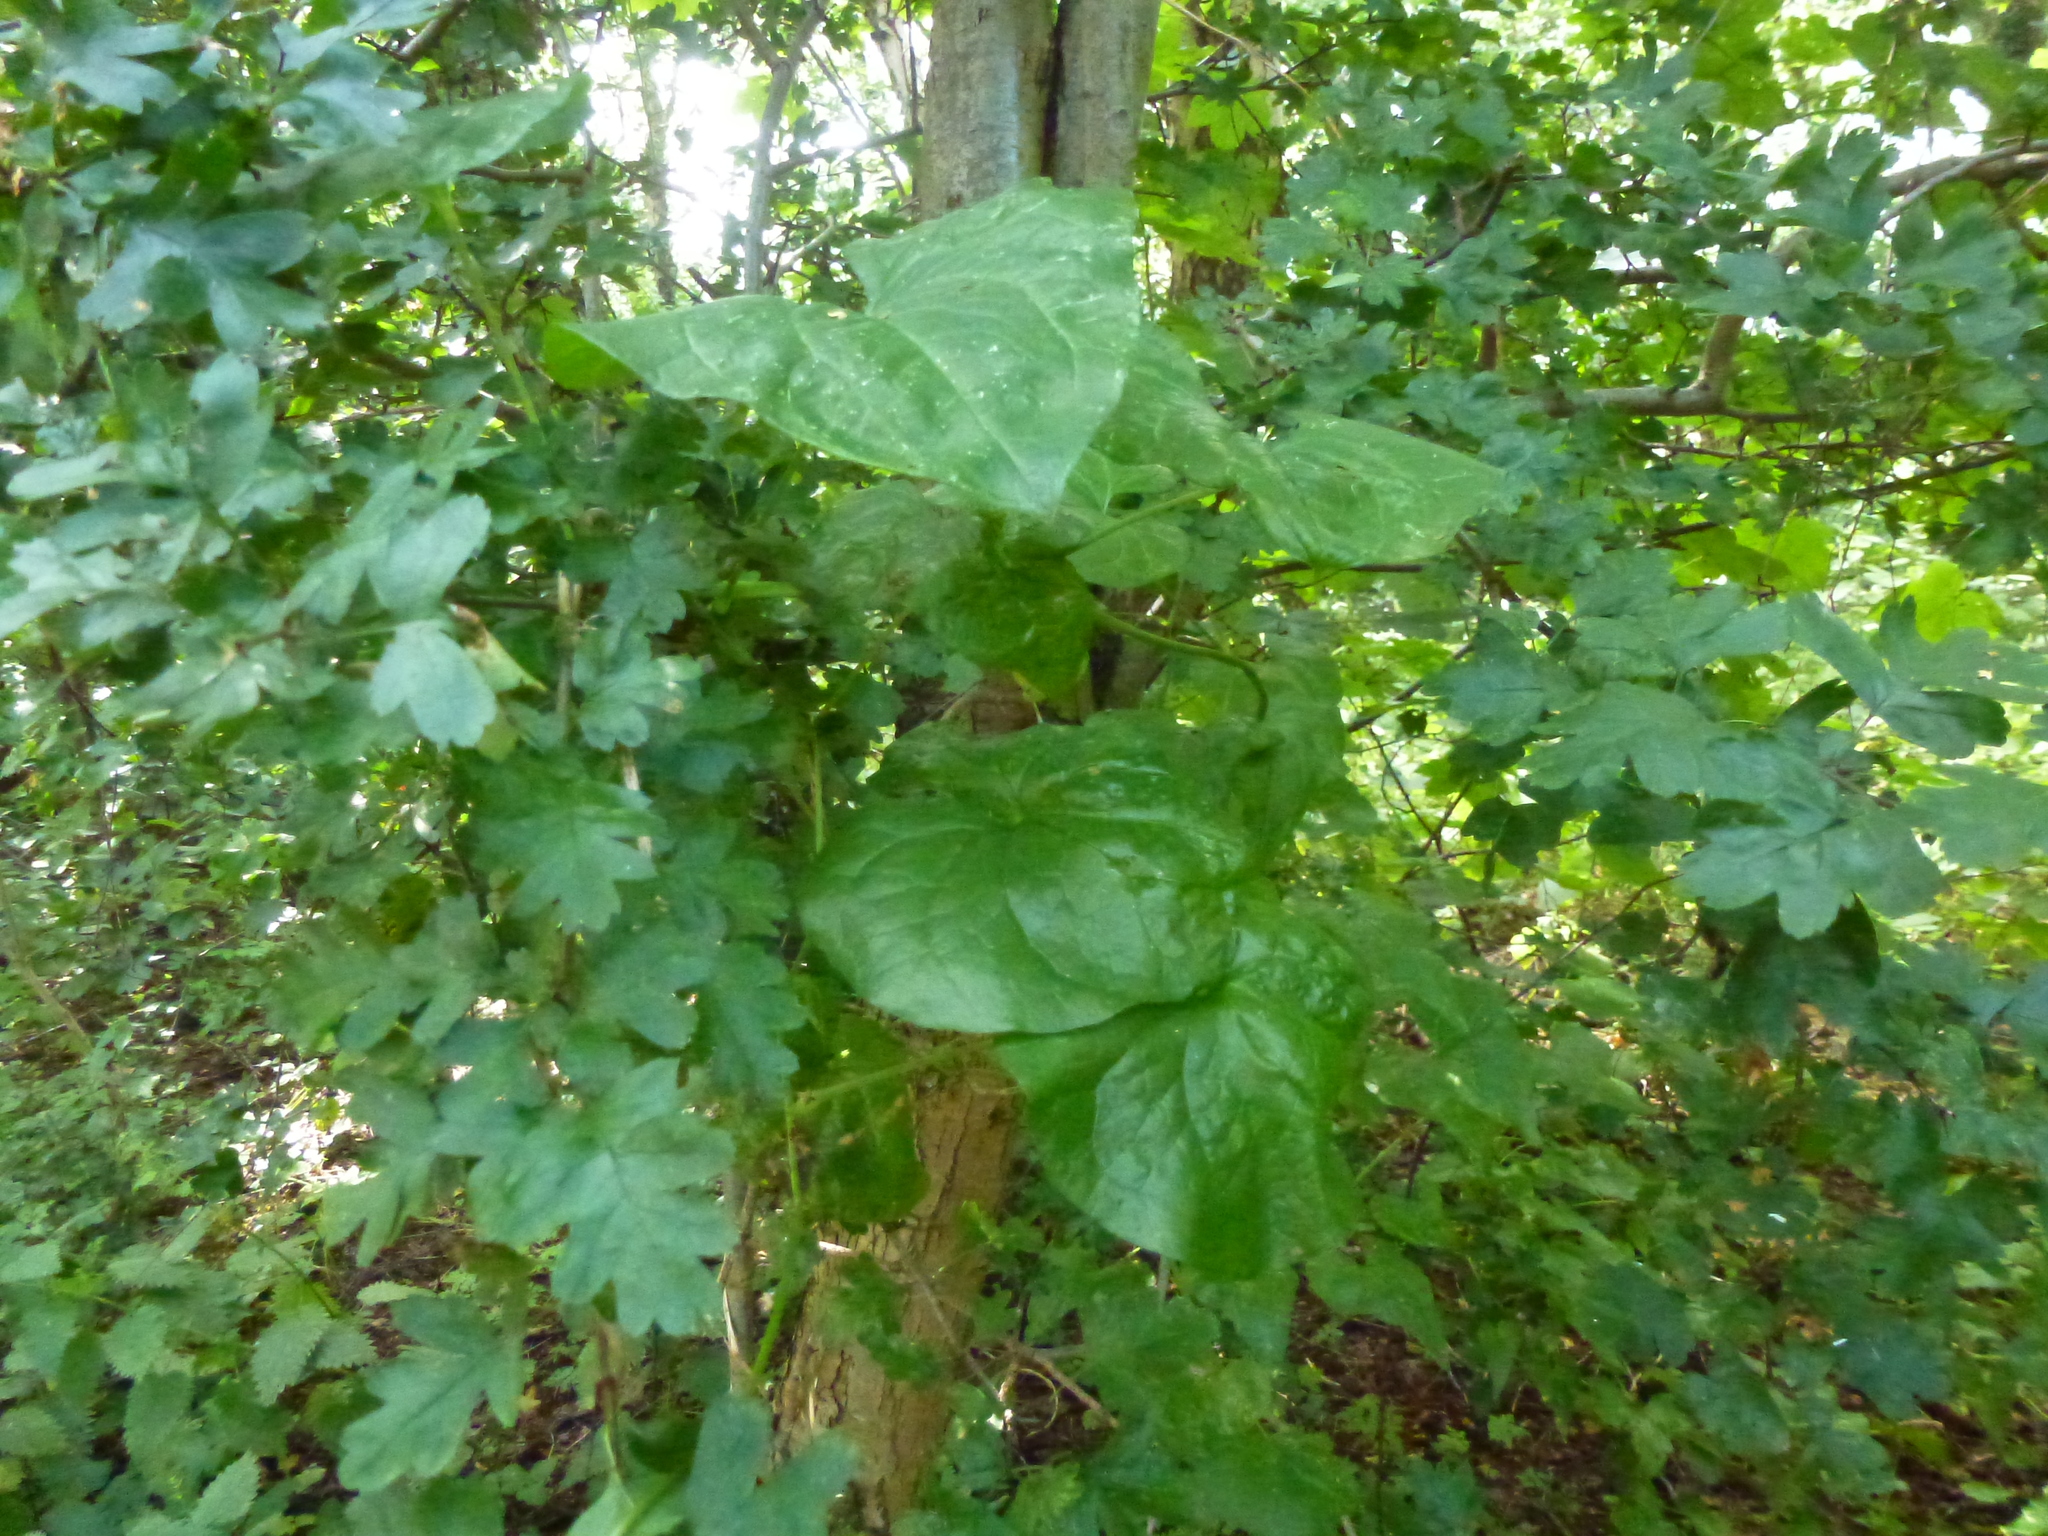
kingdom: Plantae
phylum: Tracheophyta
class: Liliopsida
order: Dioscoreales
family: Dioscoreaceae
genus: Dioscorea
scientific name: Dioscorea communis
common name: Black-bindweed
